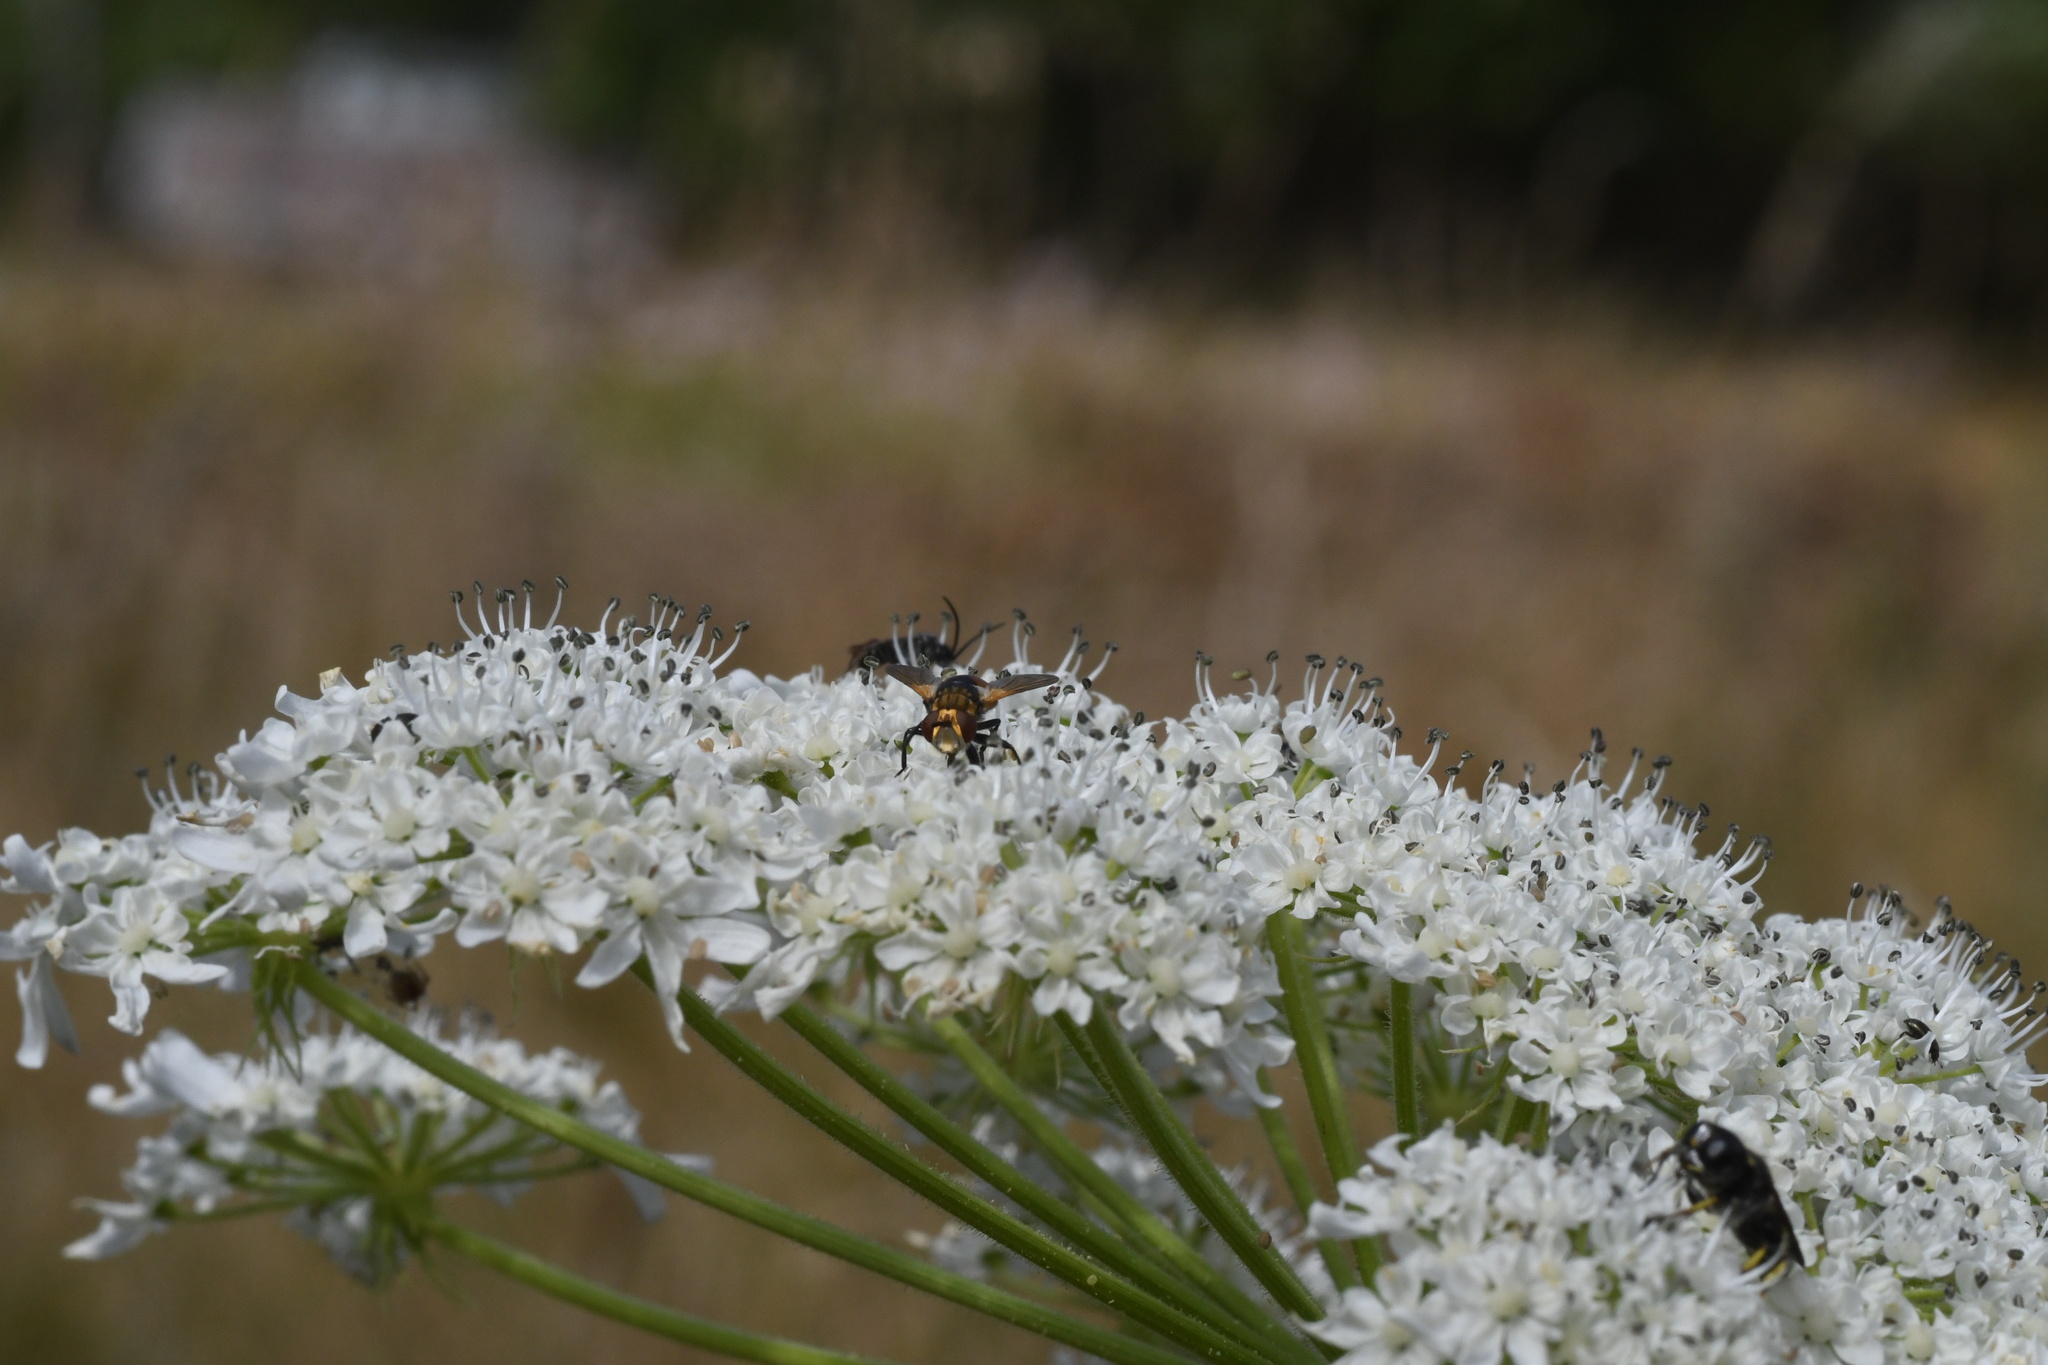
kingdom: Animalia
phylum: Arthropoda
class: Insecta
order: Diptera
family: Tachinidae
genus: Tachina
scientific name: Tachina fera
